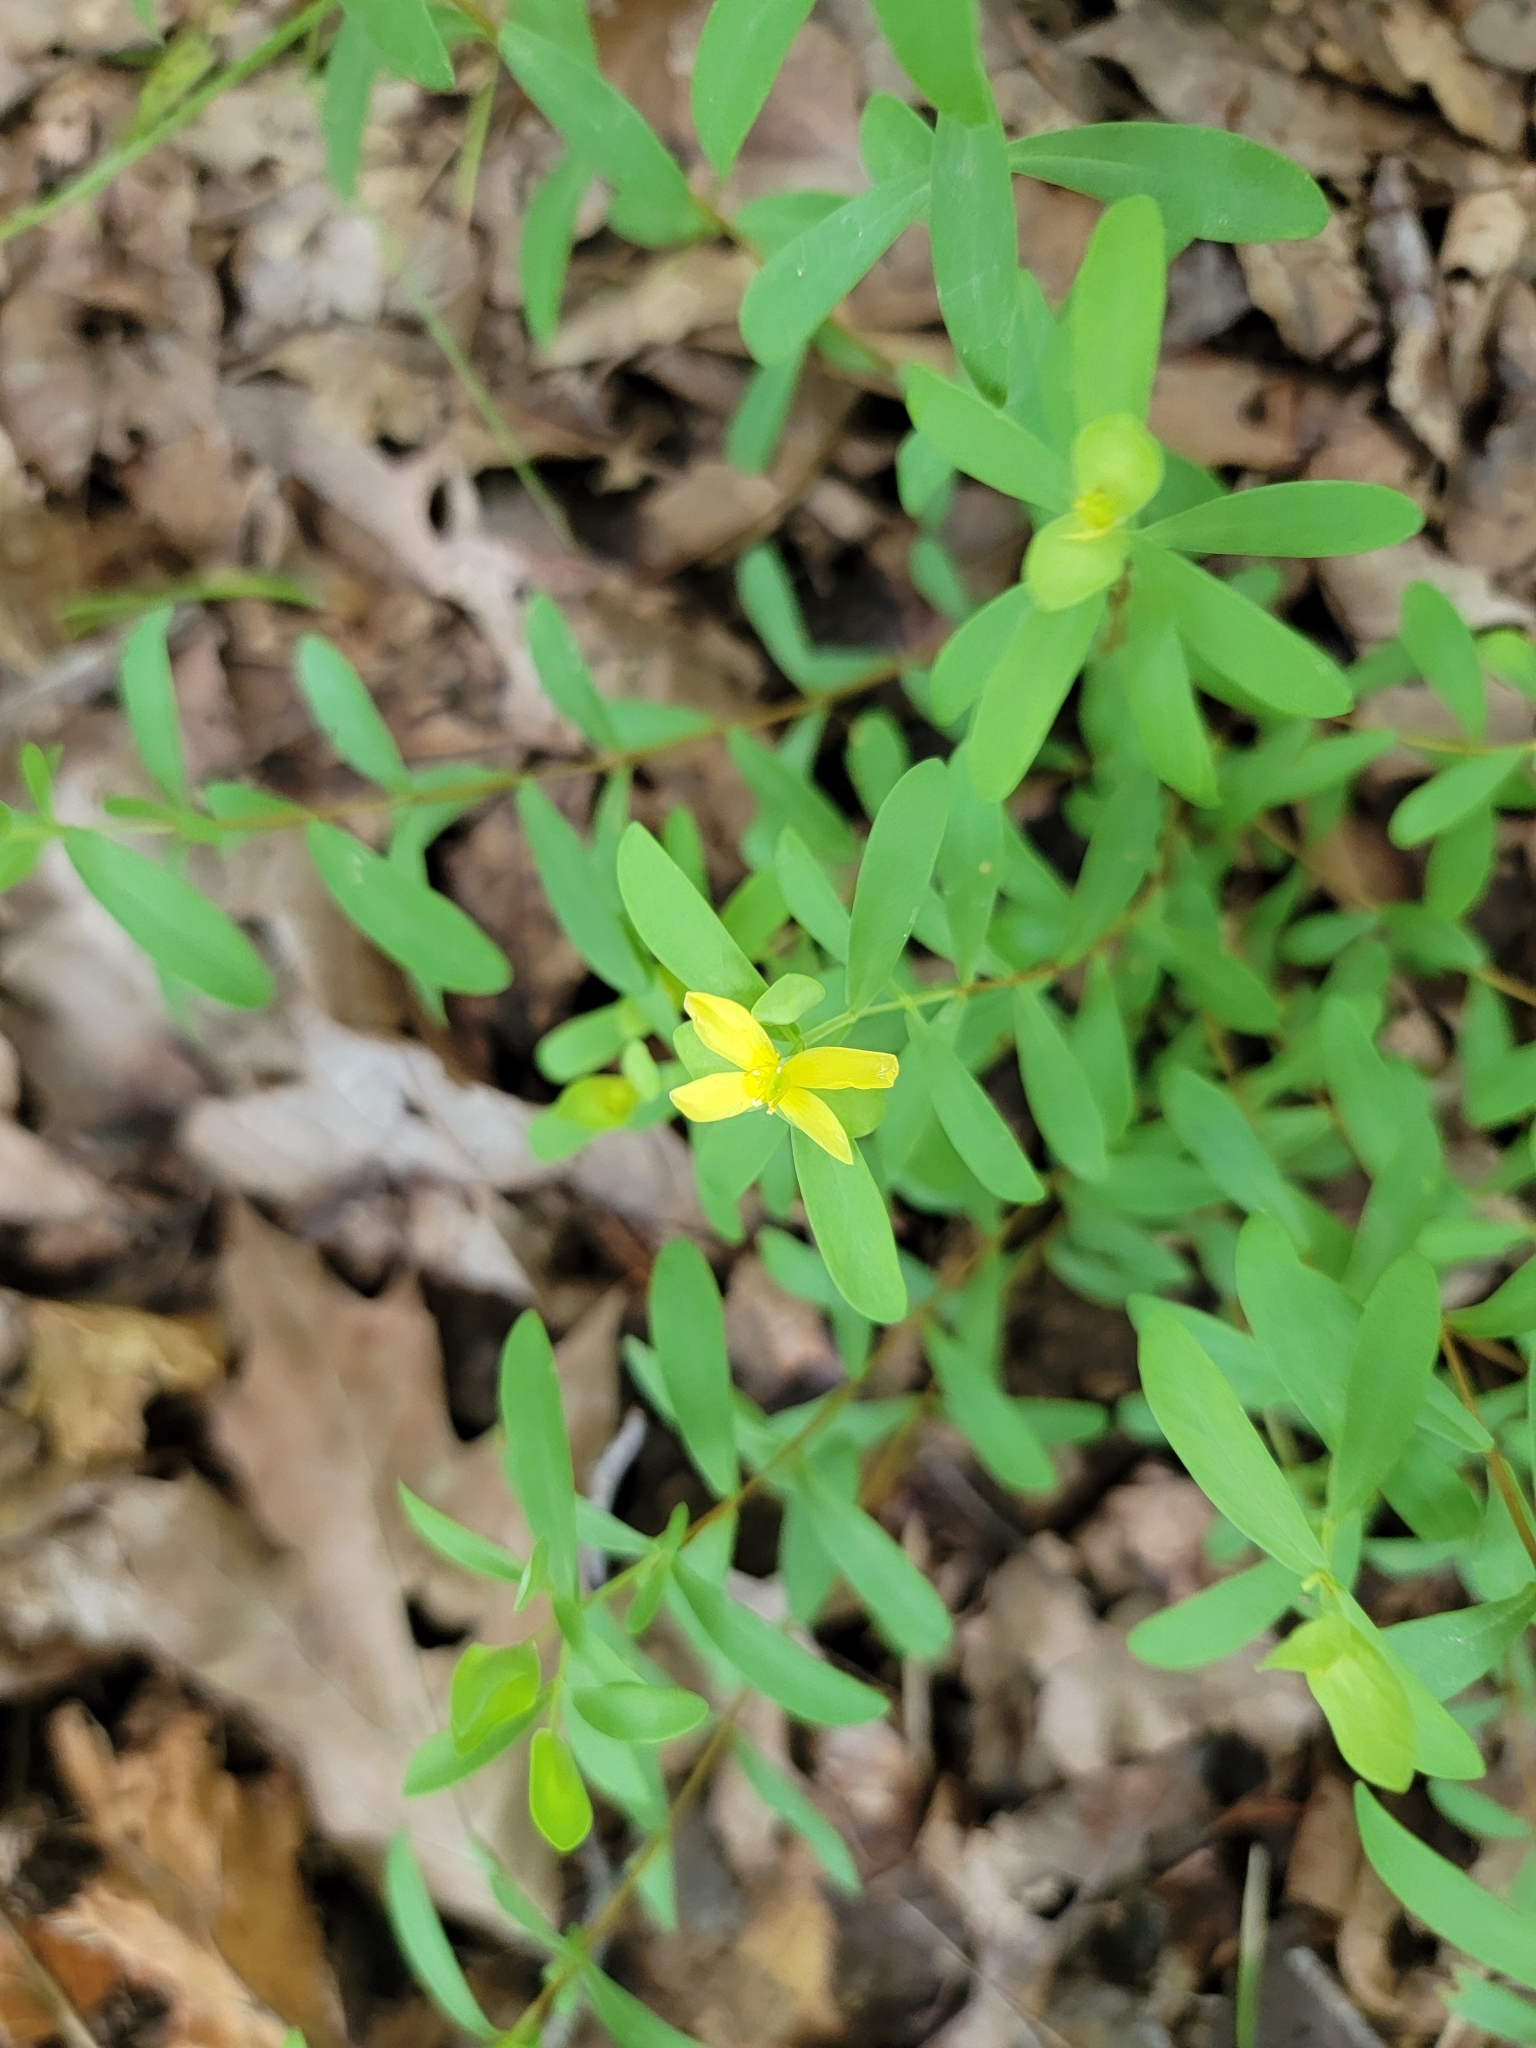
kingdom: Plantae
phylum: Tracheophyta
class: Magnoliopsida
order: Malpighiales
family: Hypericaceae
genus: Hypericum
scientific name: Hypericum hypericoides
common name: St. andrew's cross
